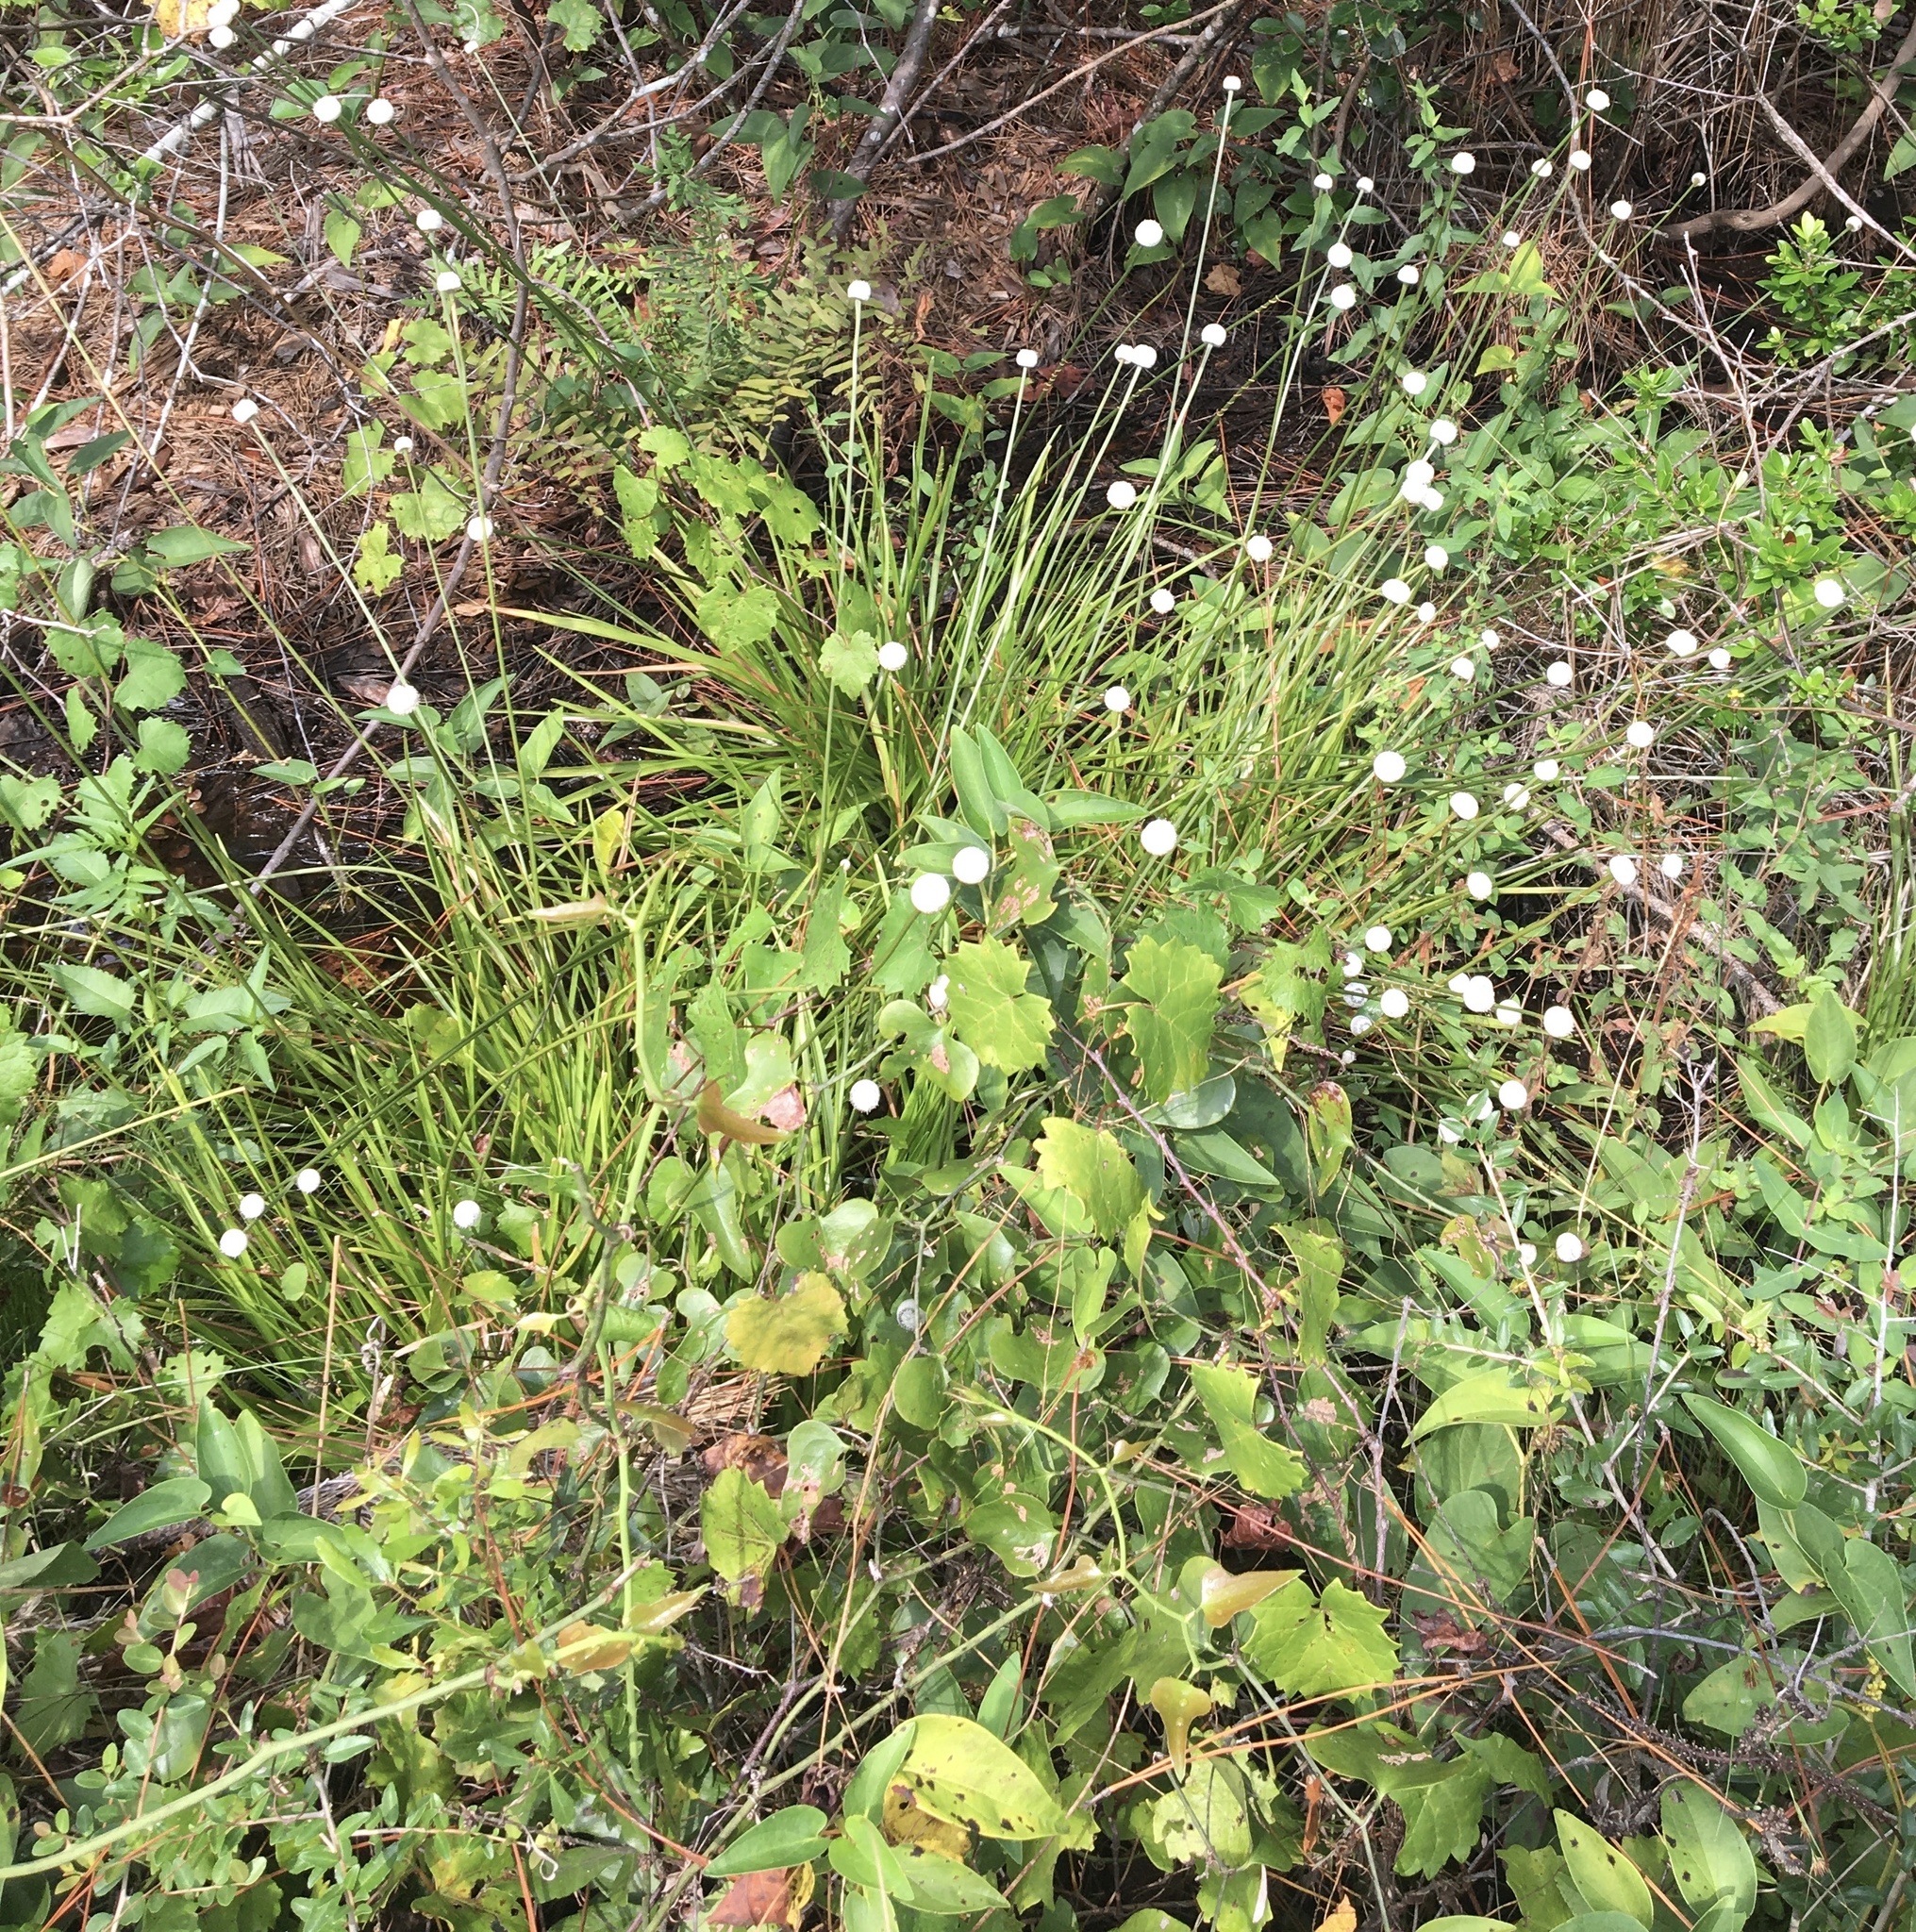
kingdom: Plantae
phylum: Tracheophyta
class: Liliopsida
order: Poales
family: Eriocaulaceae
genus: Eriocaulon
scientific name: Eriocaulon decangulare
